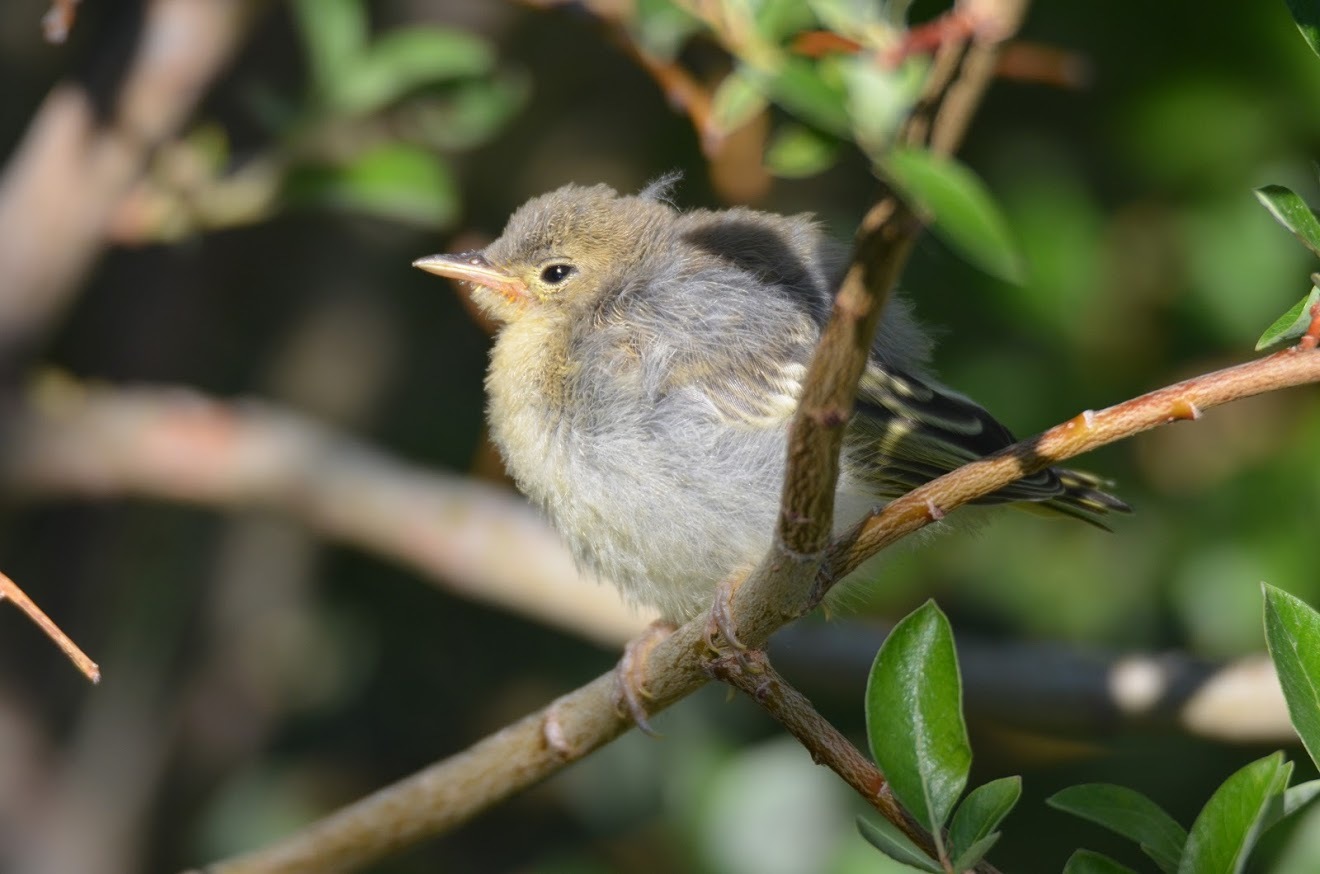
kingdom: Animalia
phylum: Chordata
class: Aves
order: Passeriformes
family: Parulidae
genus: Setophaga
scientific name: Setophaga petechia
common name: Yellow warbler
